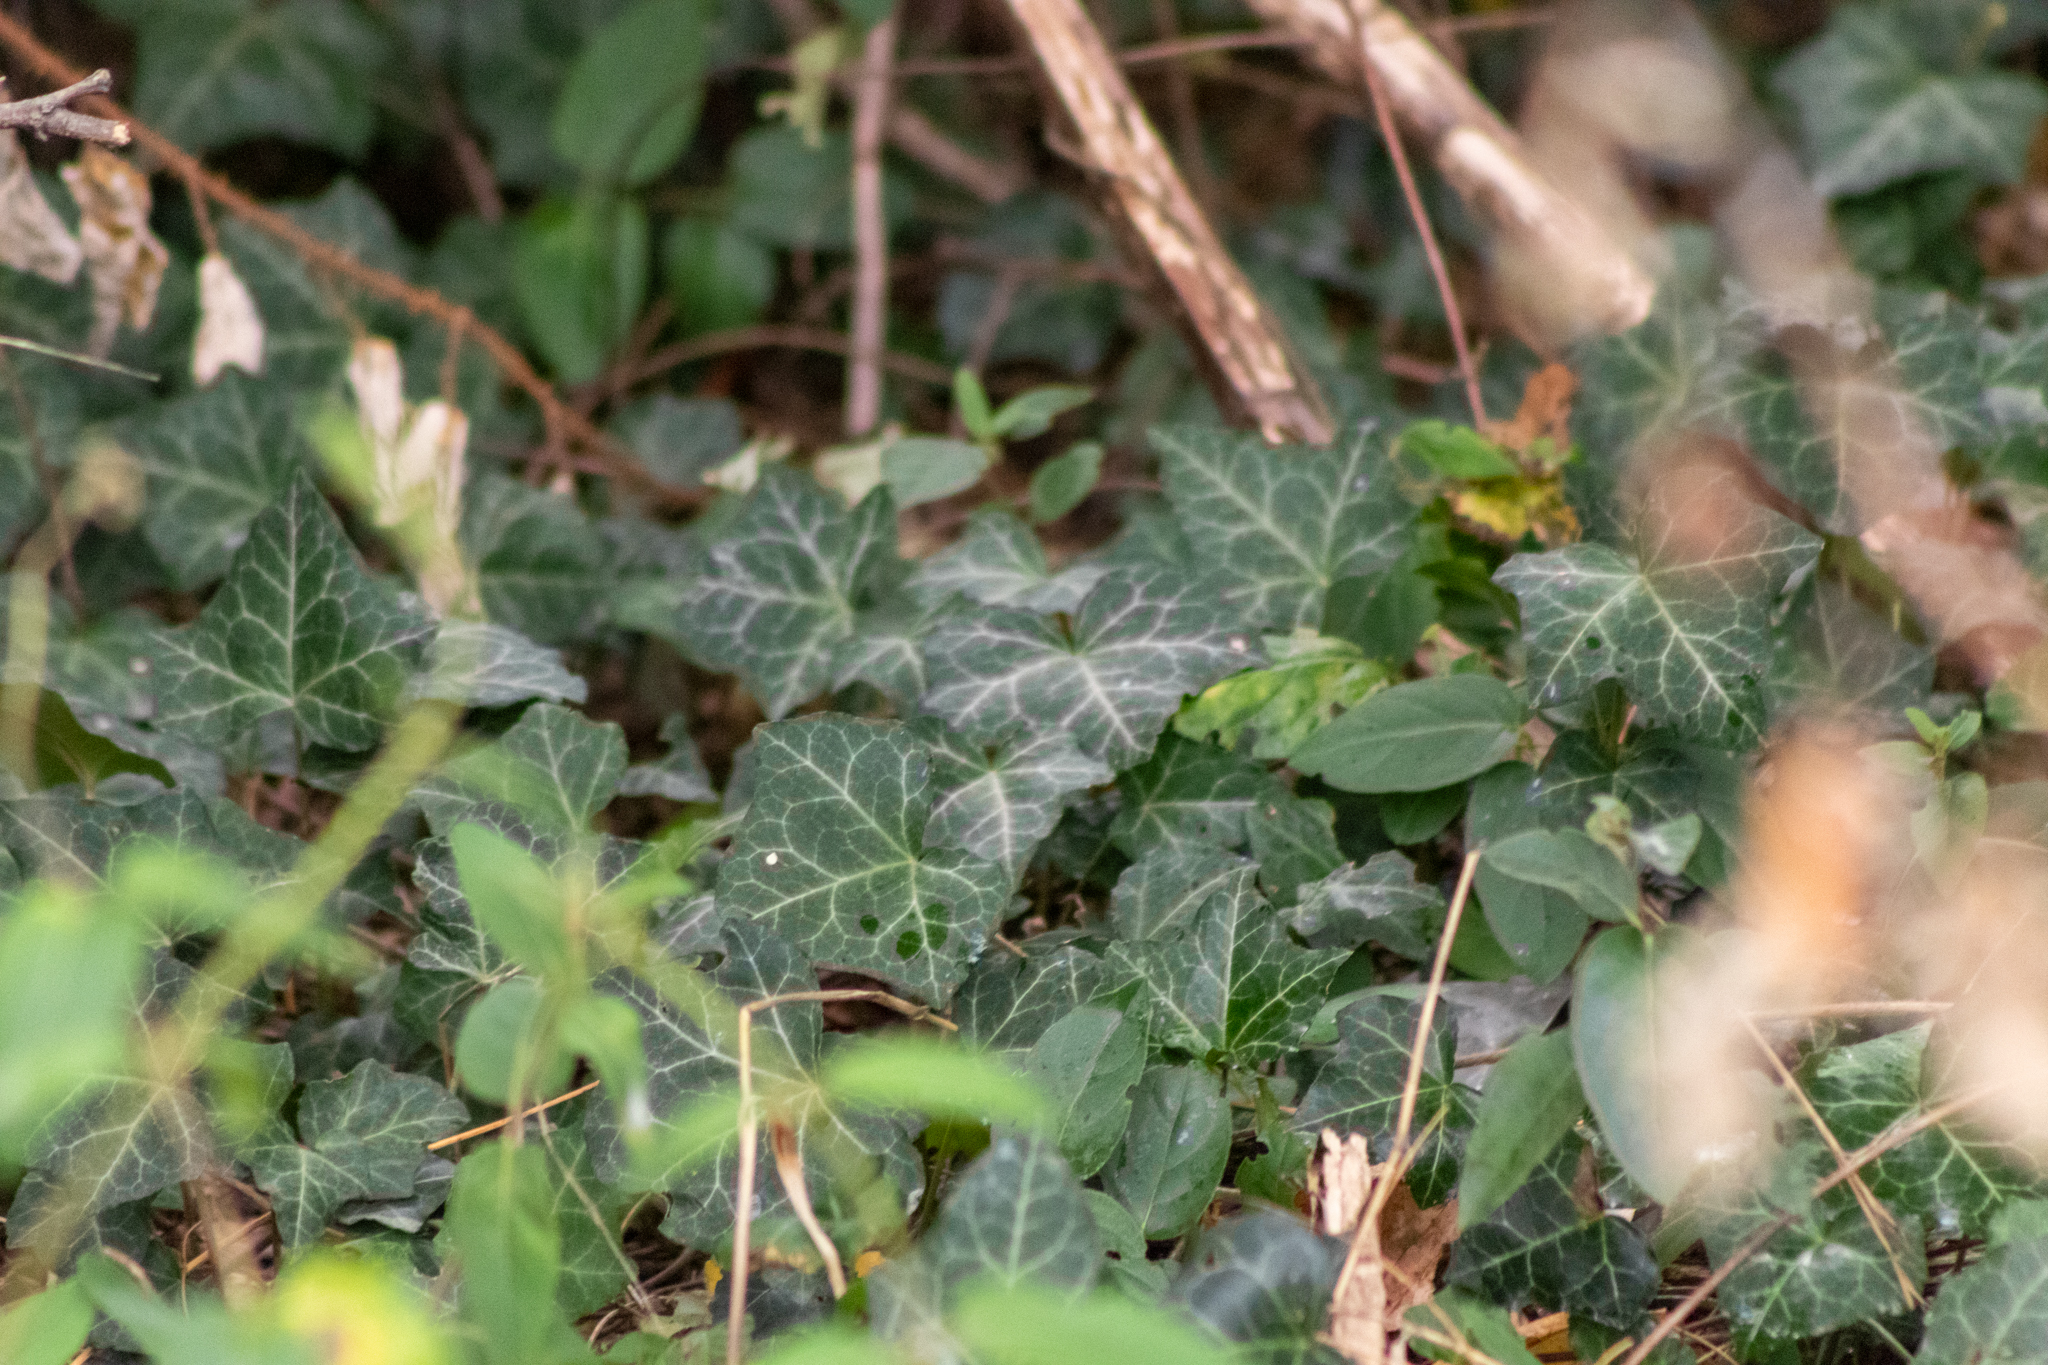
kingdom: Plantae
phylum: Tracheophyta
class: Magnoliopsida
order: Apiales
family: Araliaceae
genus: Hedera
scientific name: Hedera helix
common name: Ivy
